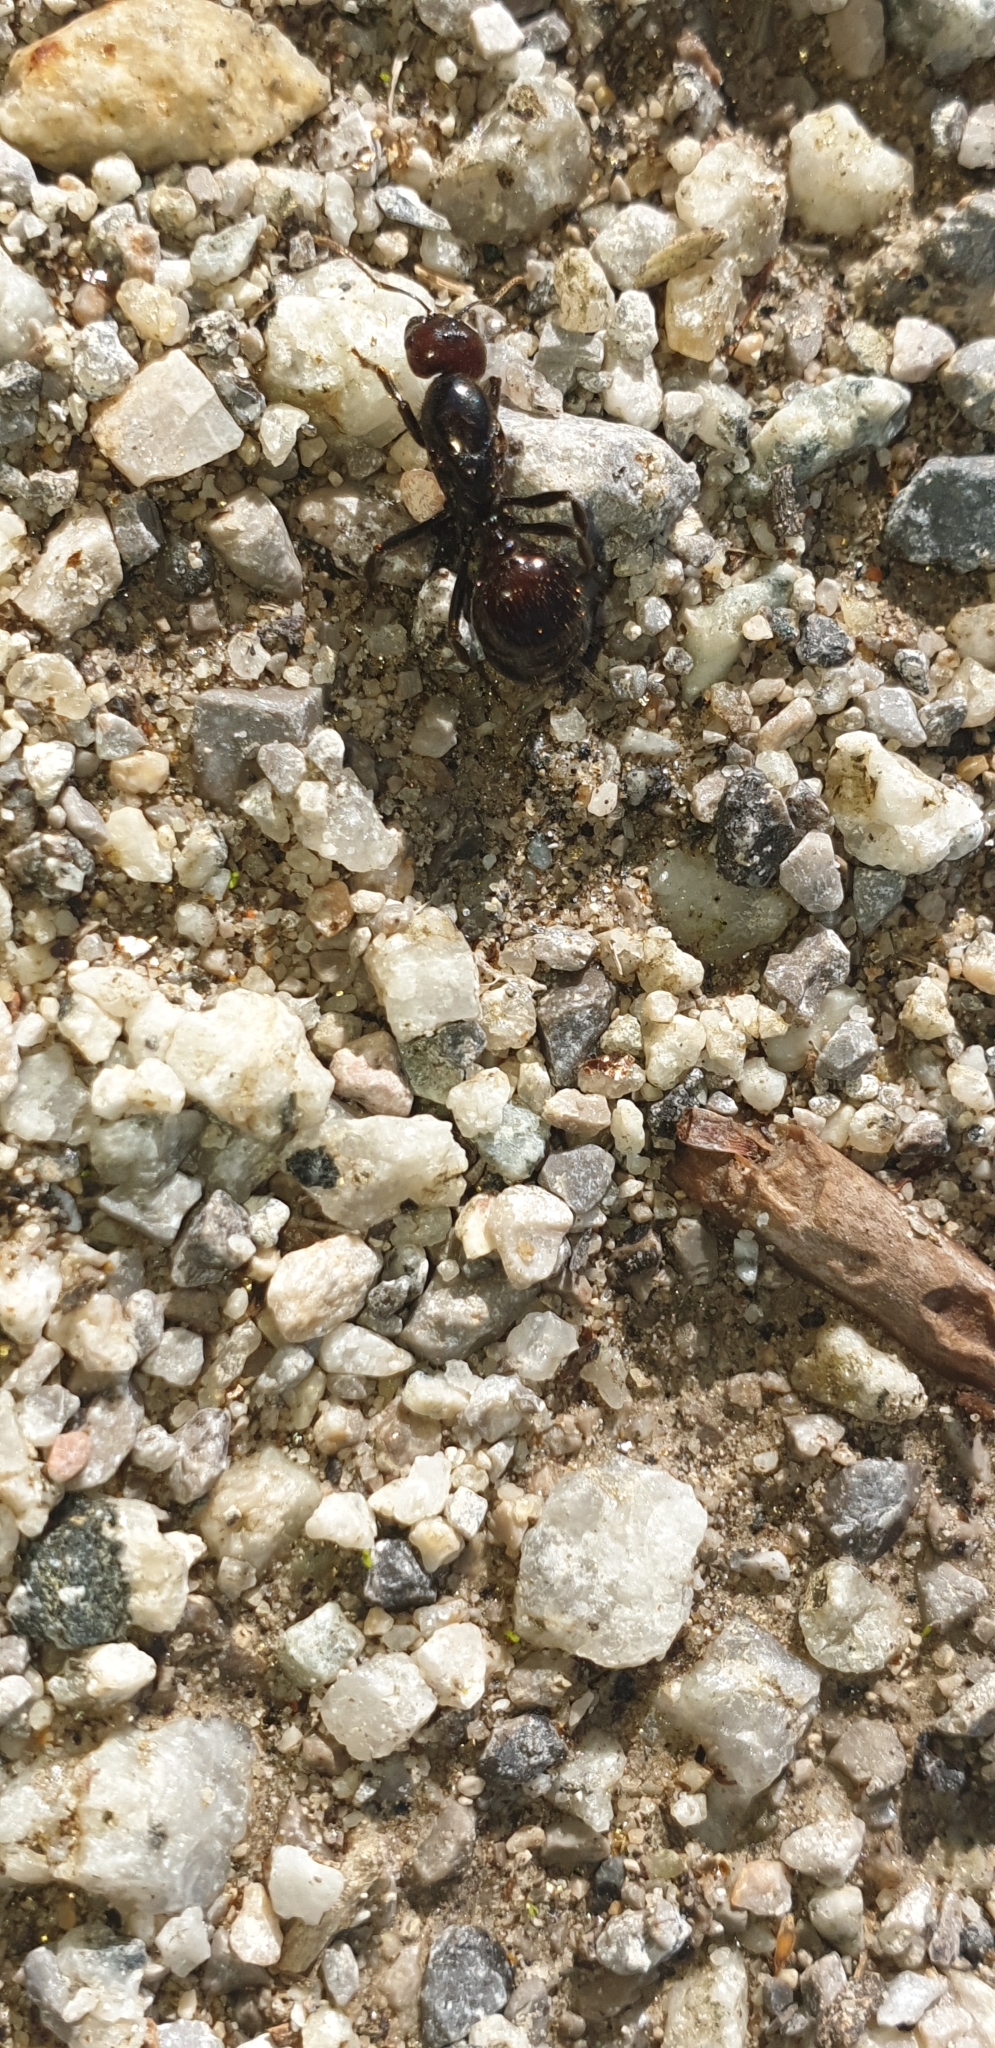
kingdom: Animalia
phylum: Arthropoda
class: Insecta
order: Hymenoptera
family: Formicidae
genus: Messor
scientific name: Messor barbarus
